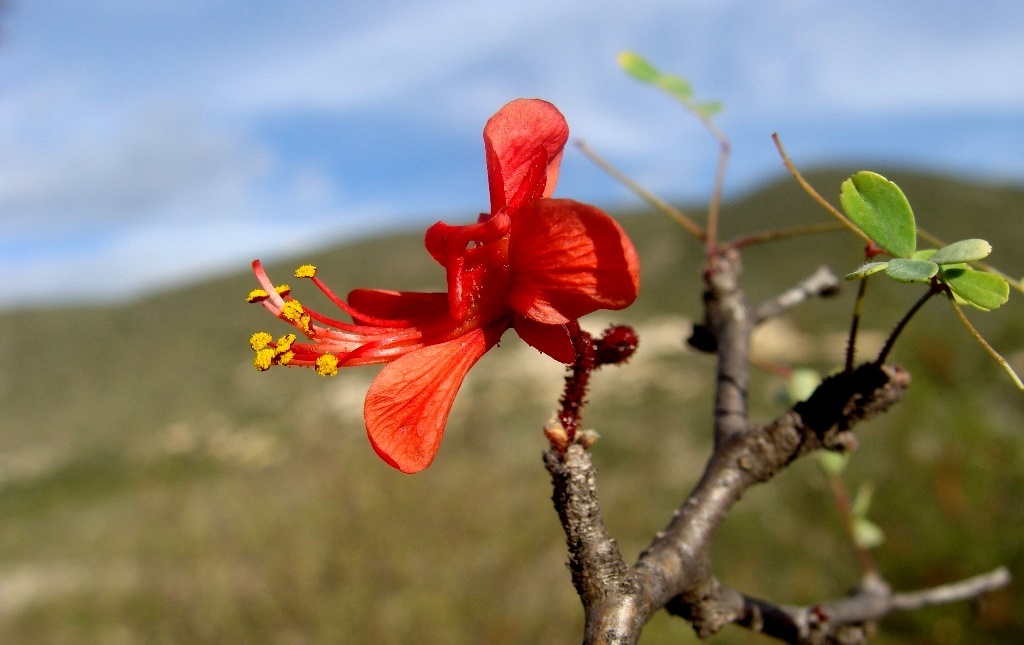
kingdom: Plantae
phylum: Tracheophyta
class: Magnoliopsida
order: Fabales
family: Fabaceae
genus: Erythrostemon
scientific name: Erythrostemon melanadenius
